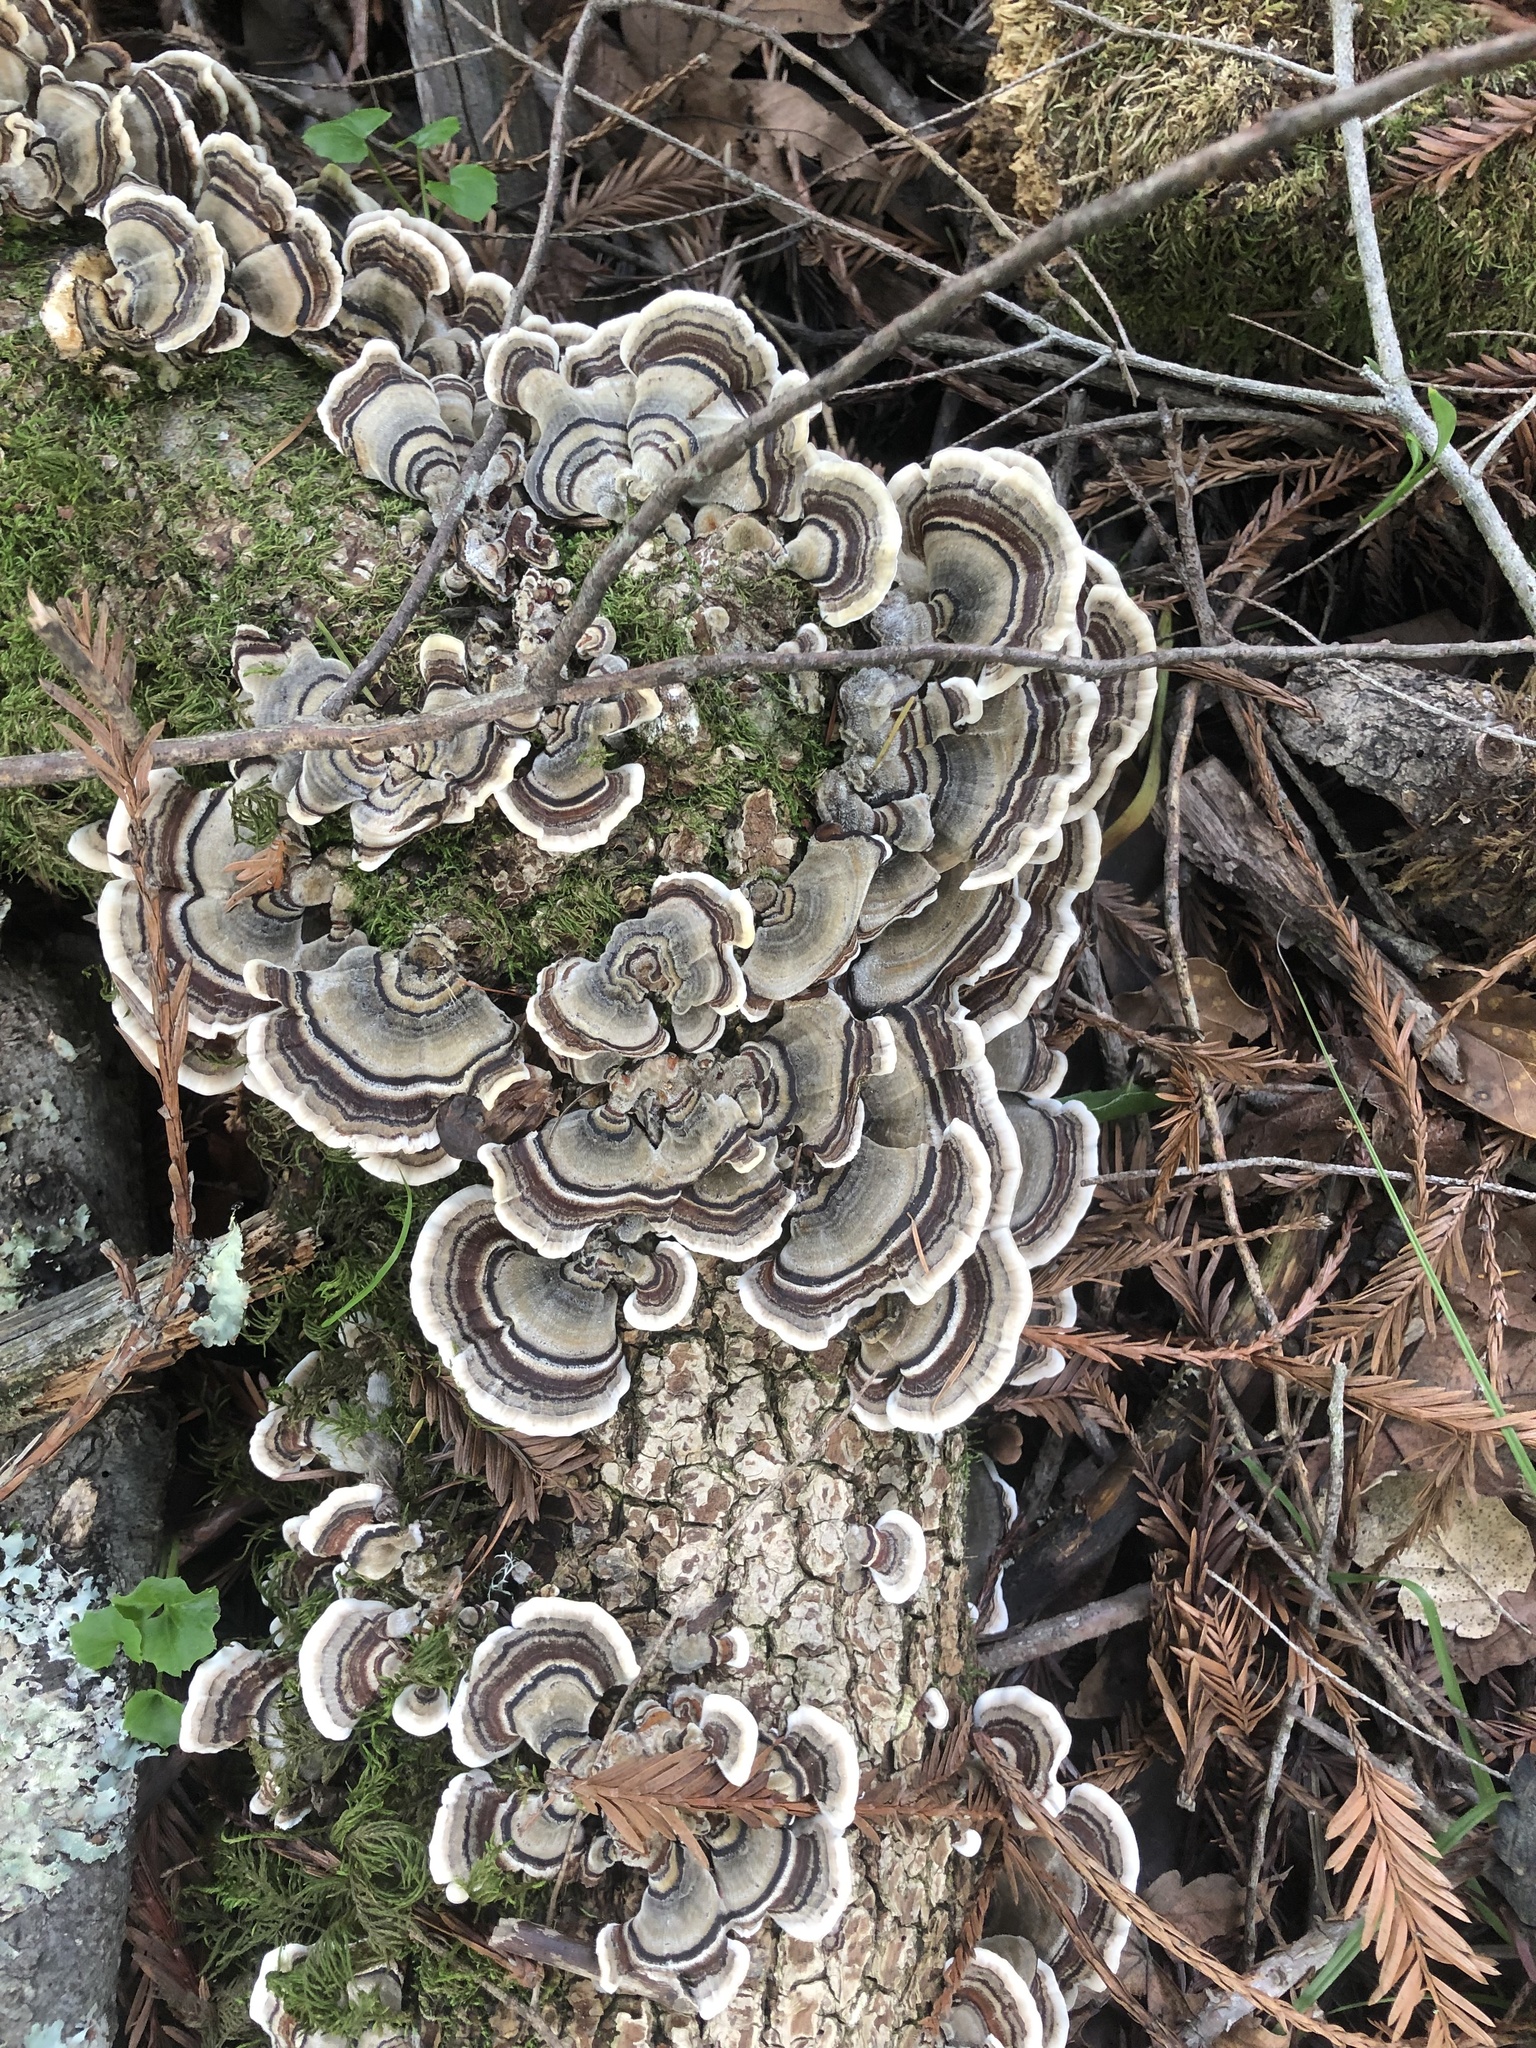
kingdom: Fungi
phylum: Basidiomycota
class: Agaricomycetes
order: Polyporales
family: Polyporaceae
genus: Trametes
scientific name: Trametes versicolor
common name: Turkeytail
